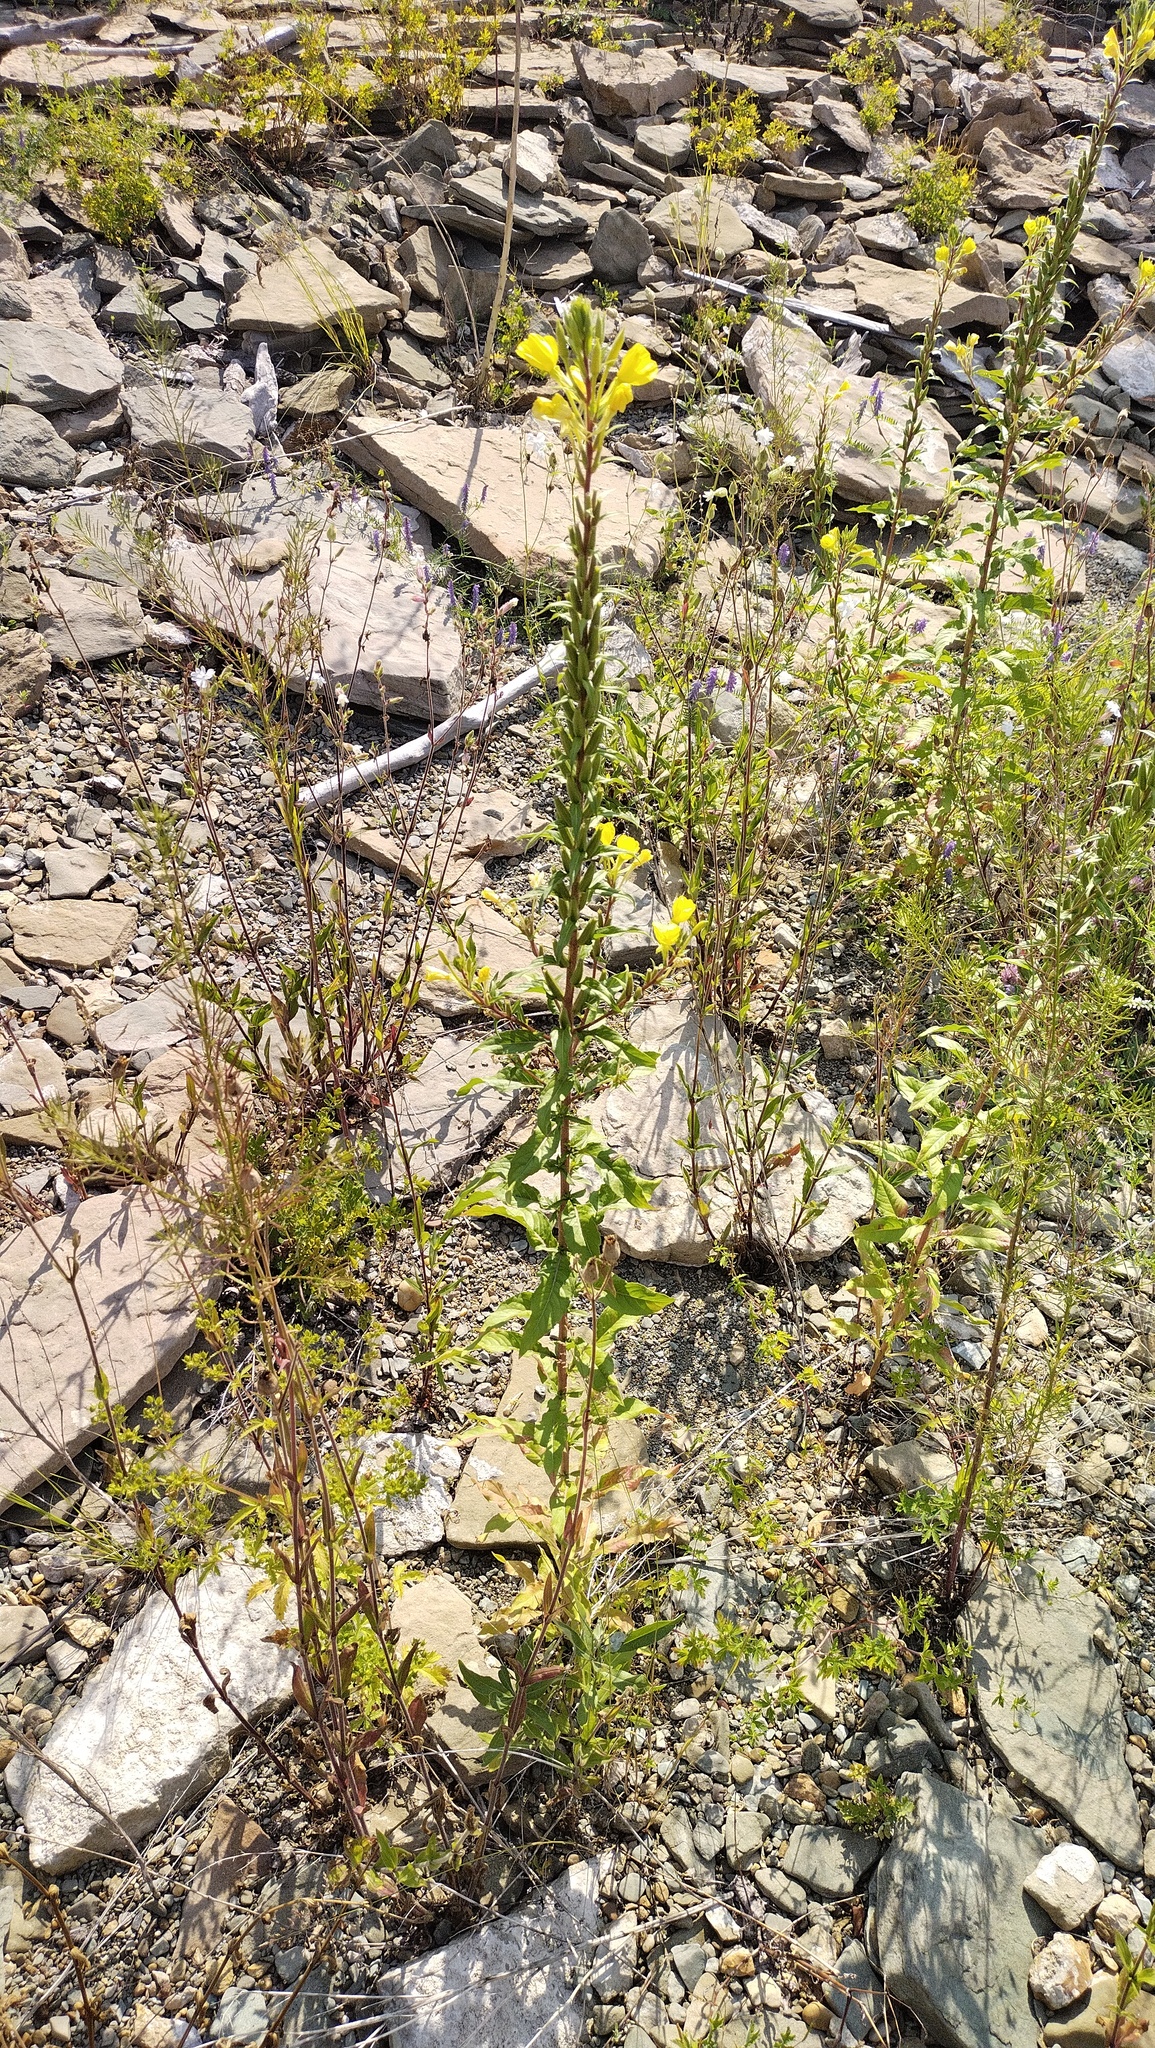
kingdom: Plantae
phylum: Tracheophyta
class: Magnoliopsida
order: Myrtales
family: Onagraceae
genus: Oenothera
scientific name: Oenothera rubricaulis
